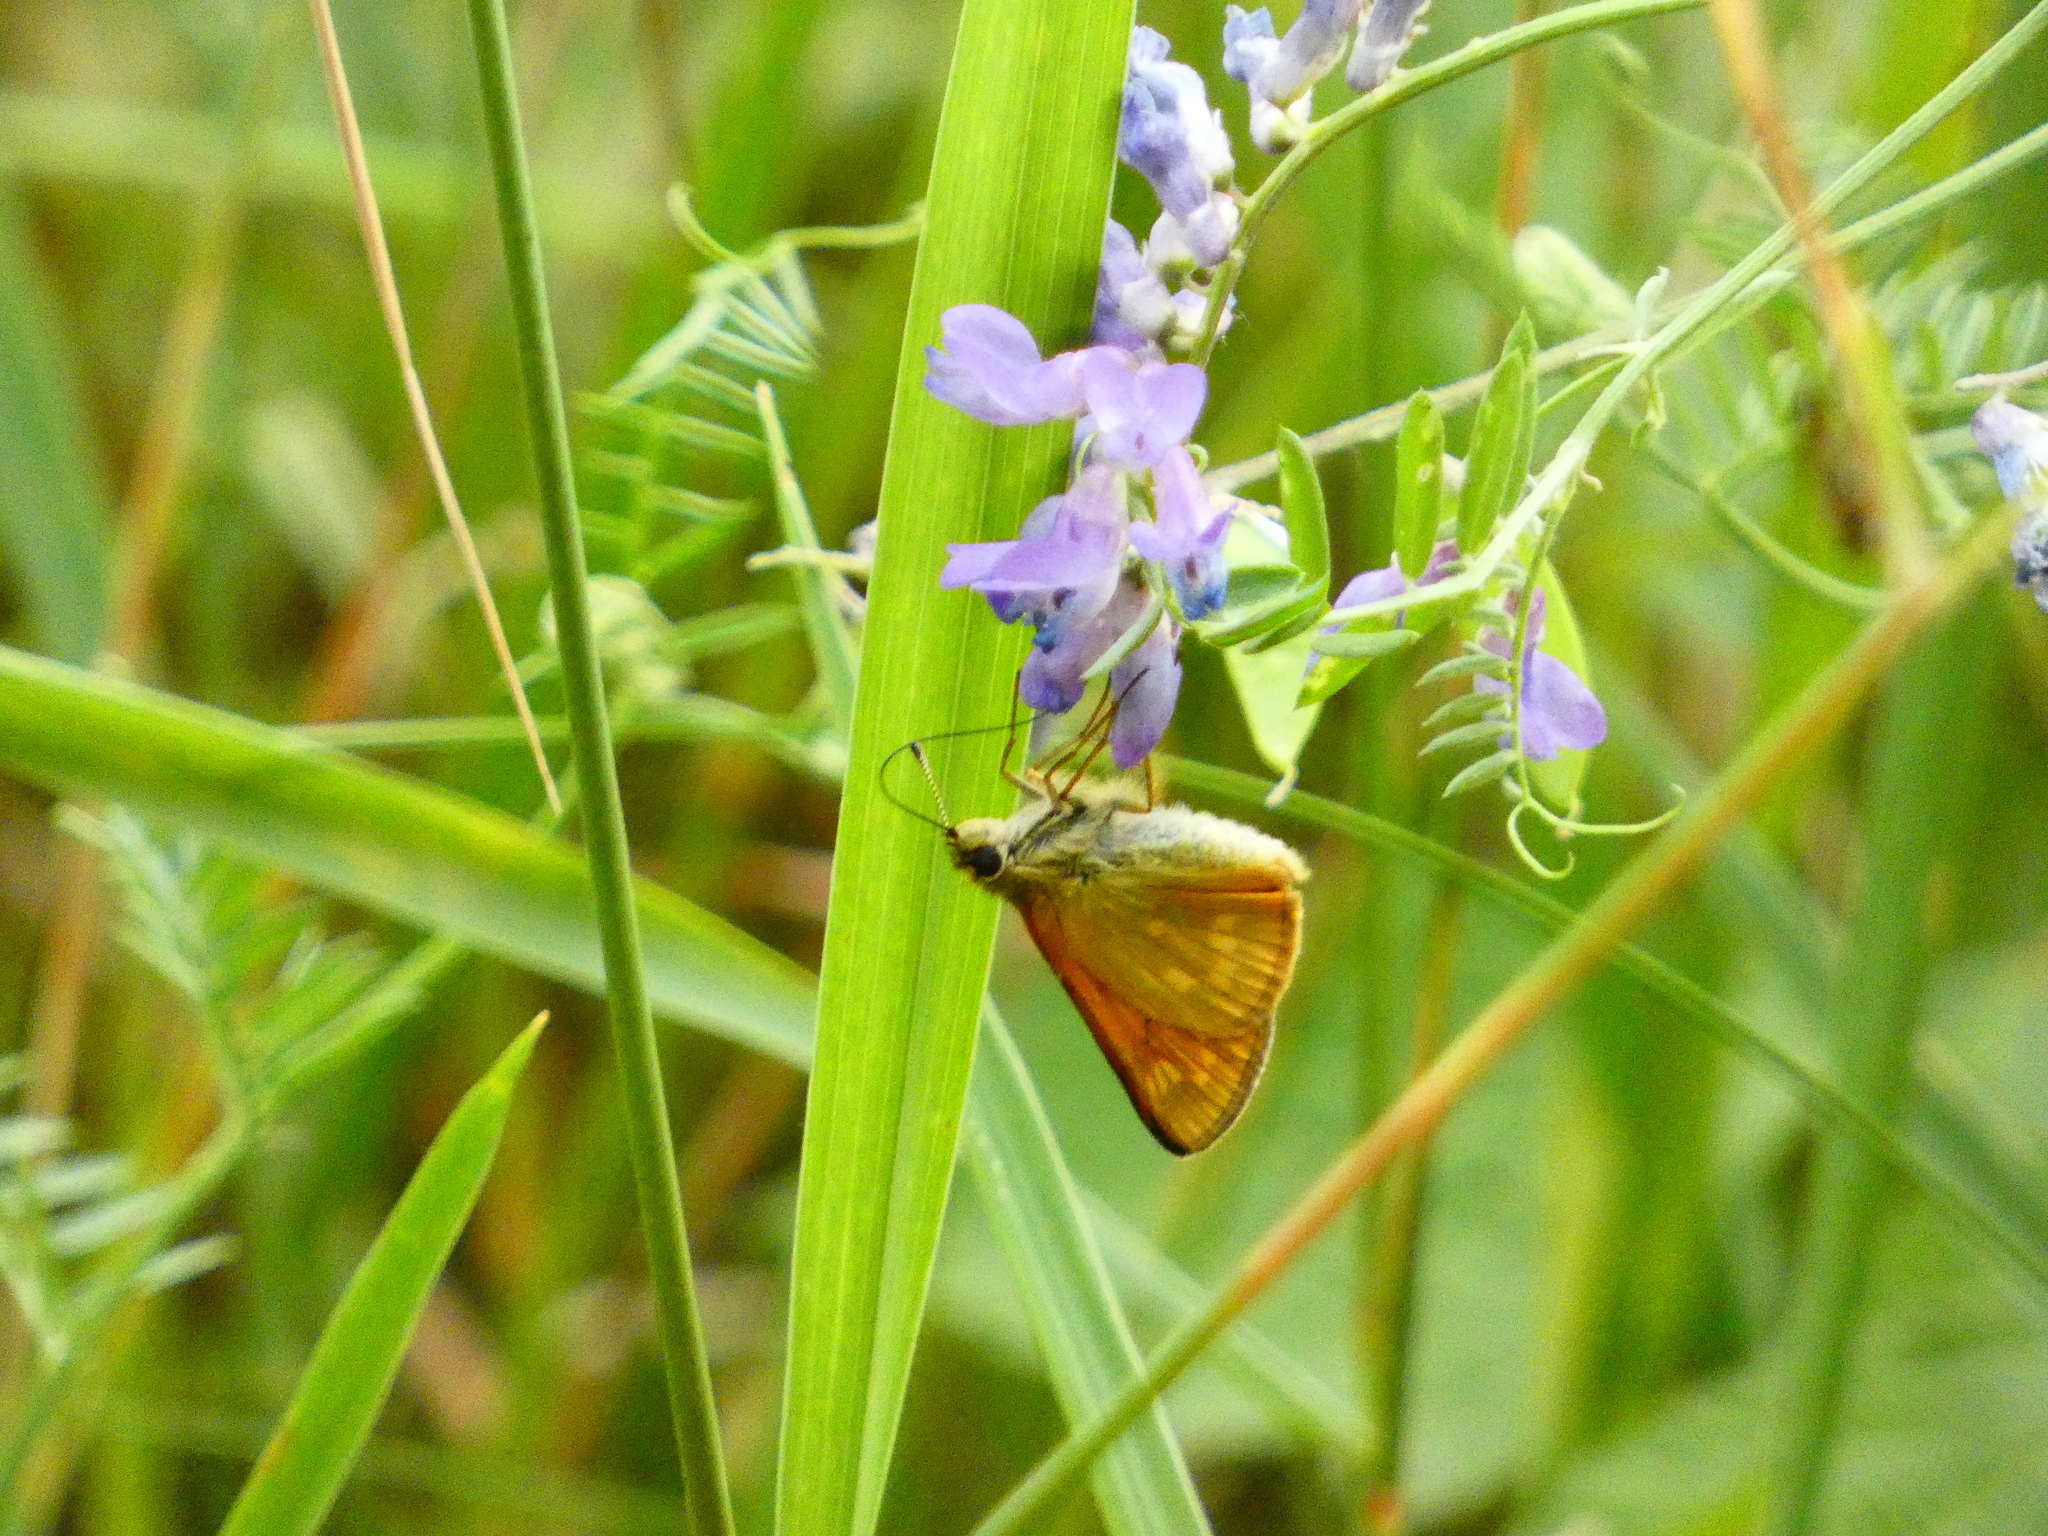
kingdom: Animalia
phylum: Arthropoda
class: Insecta
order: Lepidoptera
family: Hesperiidae
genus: Ochlodes
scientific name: Ochlodes venata
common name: Large skipper
